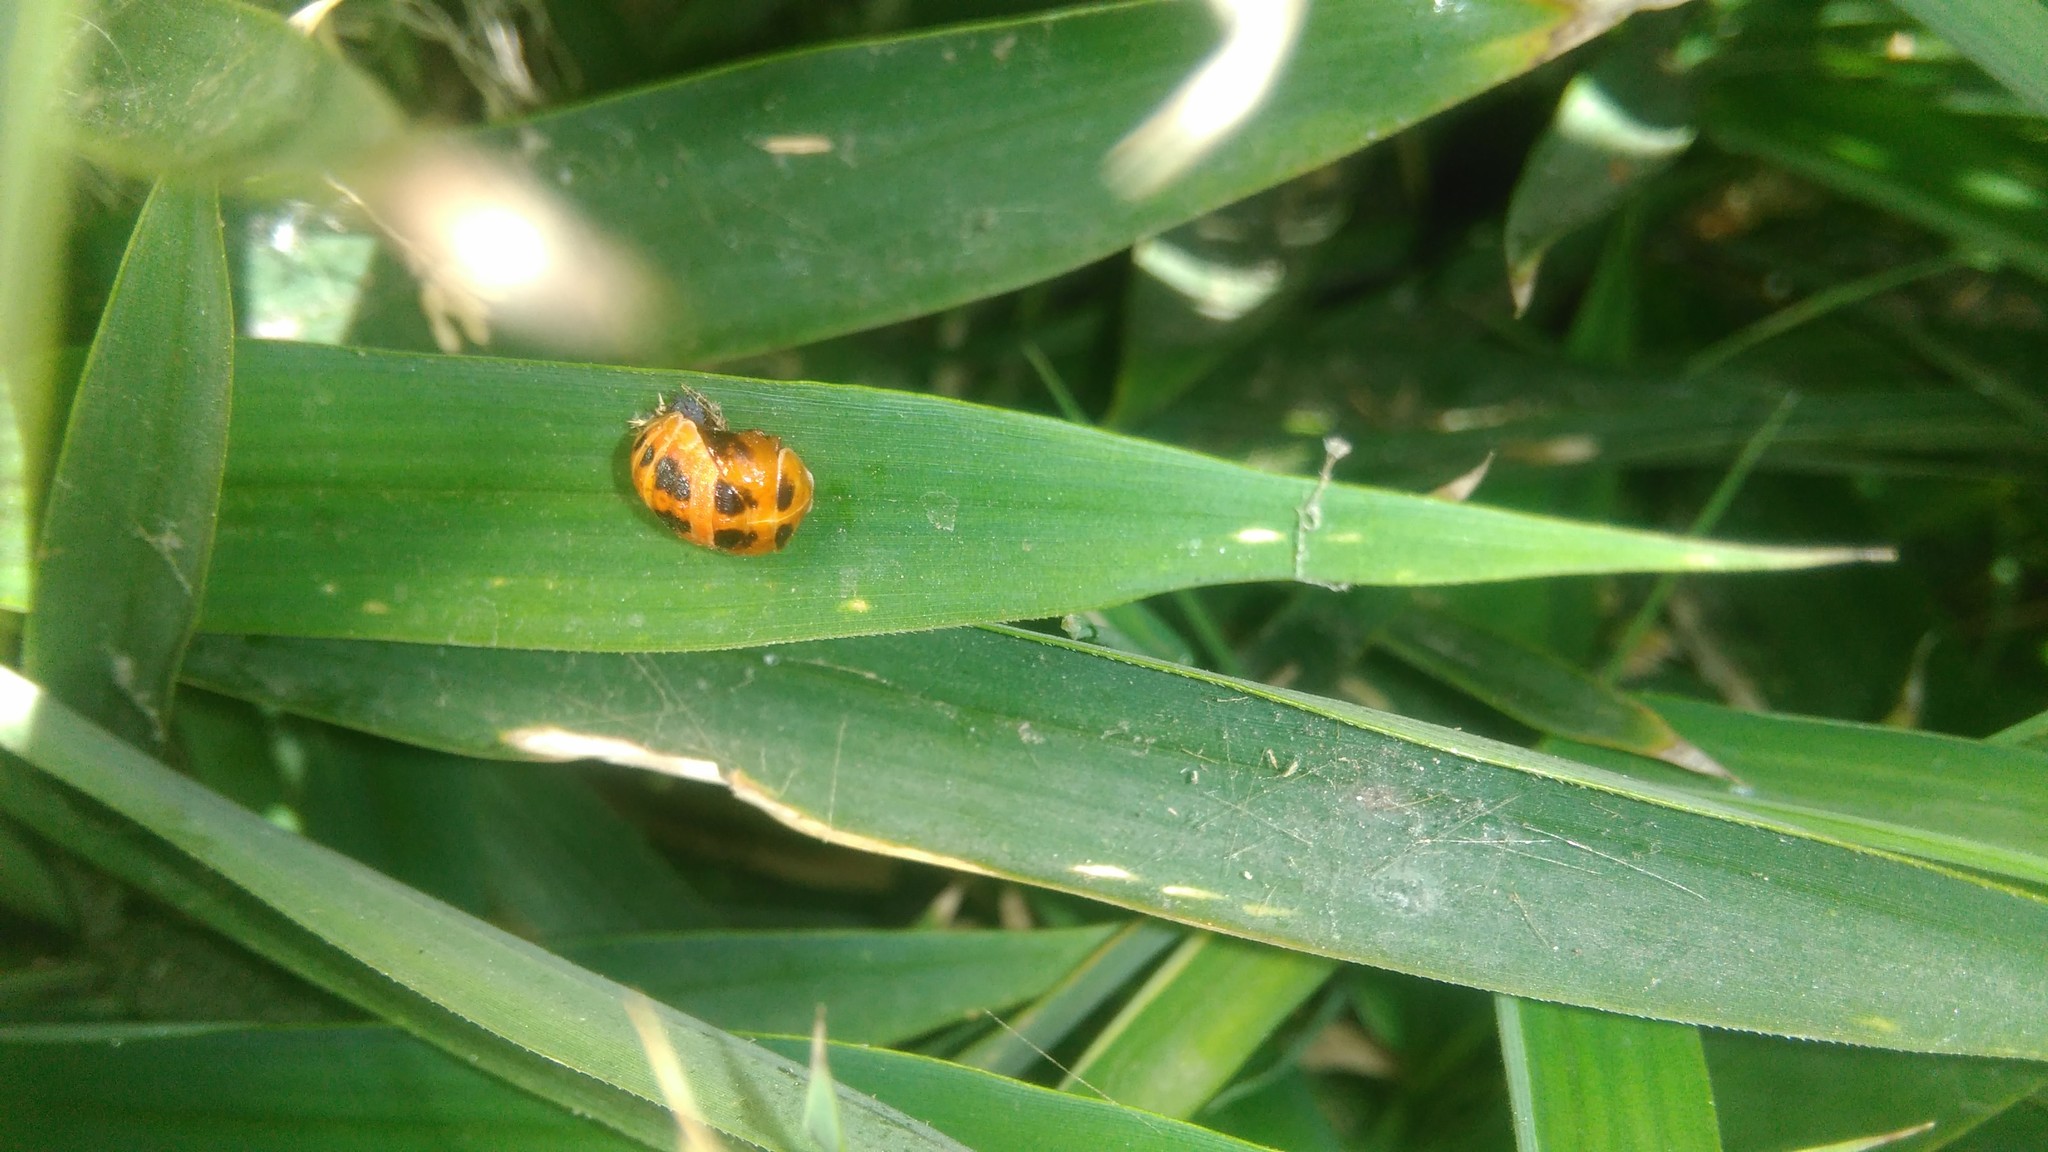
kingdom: Animalia
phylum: Arthropoda
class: Insecta
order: Coleoptera
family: Coccinellidae
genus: Harmonia
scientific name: Harmonia axyridis
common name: Harlequin ladybird
